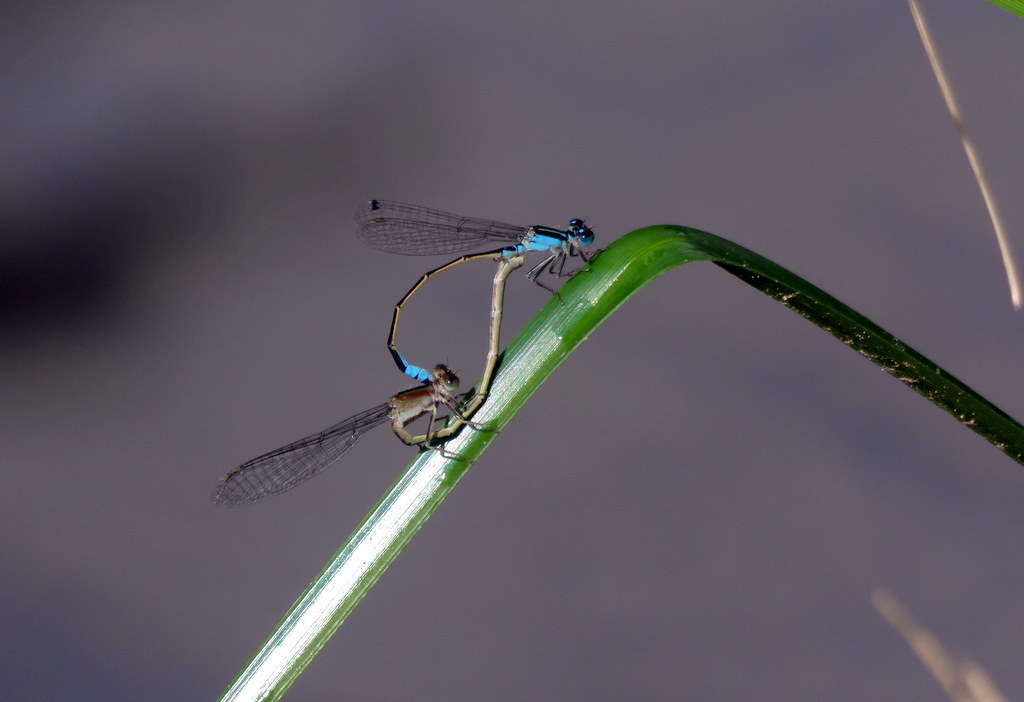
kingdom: Animalia
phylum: Arthropoda
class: Insecta
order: Odonata
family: Coenagrionidae
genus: Ischnura
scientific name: Ischnura fluviatilis
